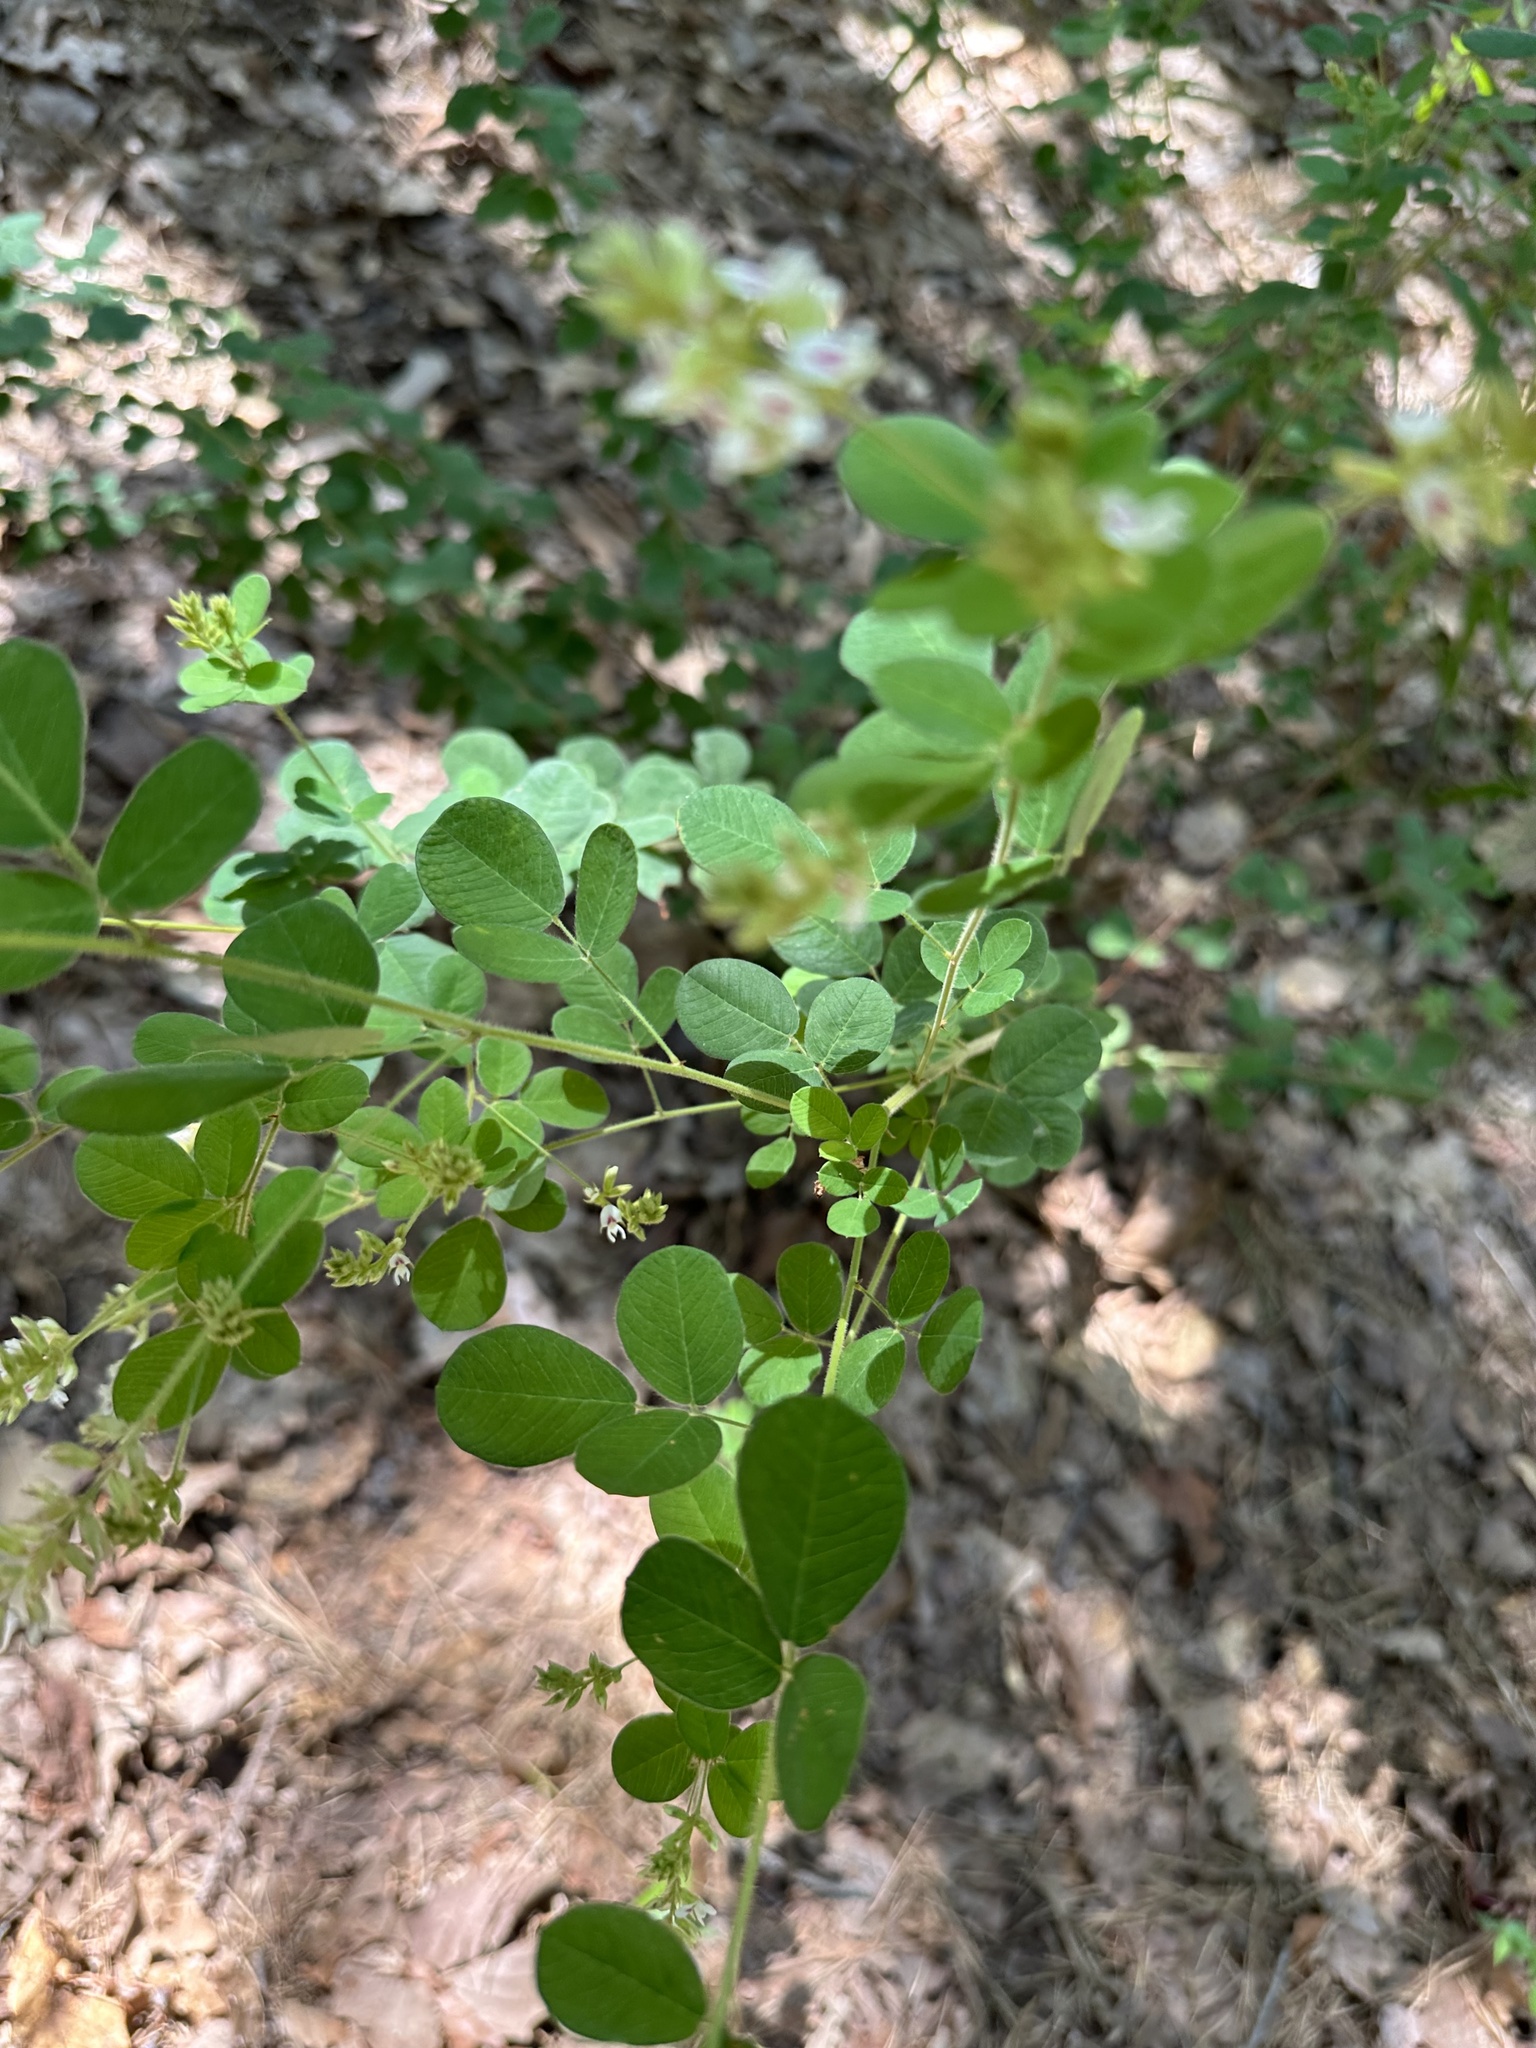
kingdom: Plantae
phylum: Tracheophyta
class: Magnoliopsida
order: Fabales
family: Fabaceae
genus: Lespedeza
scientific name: Lespedeza hirta
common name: Hairy lespedeza
